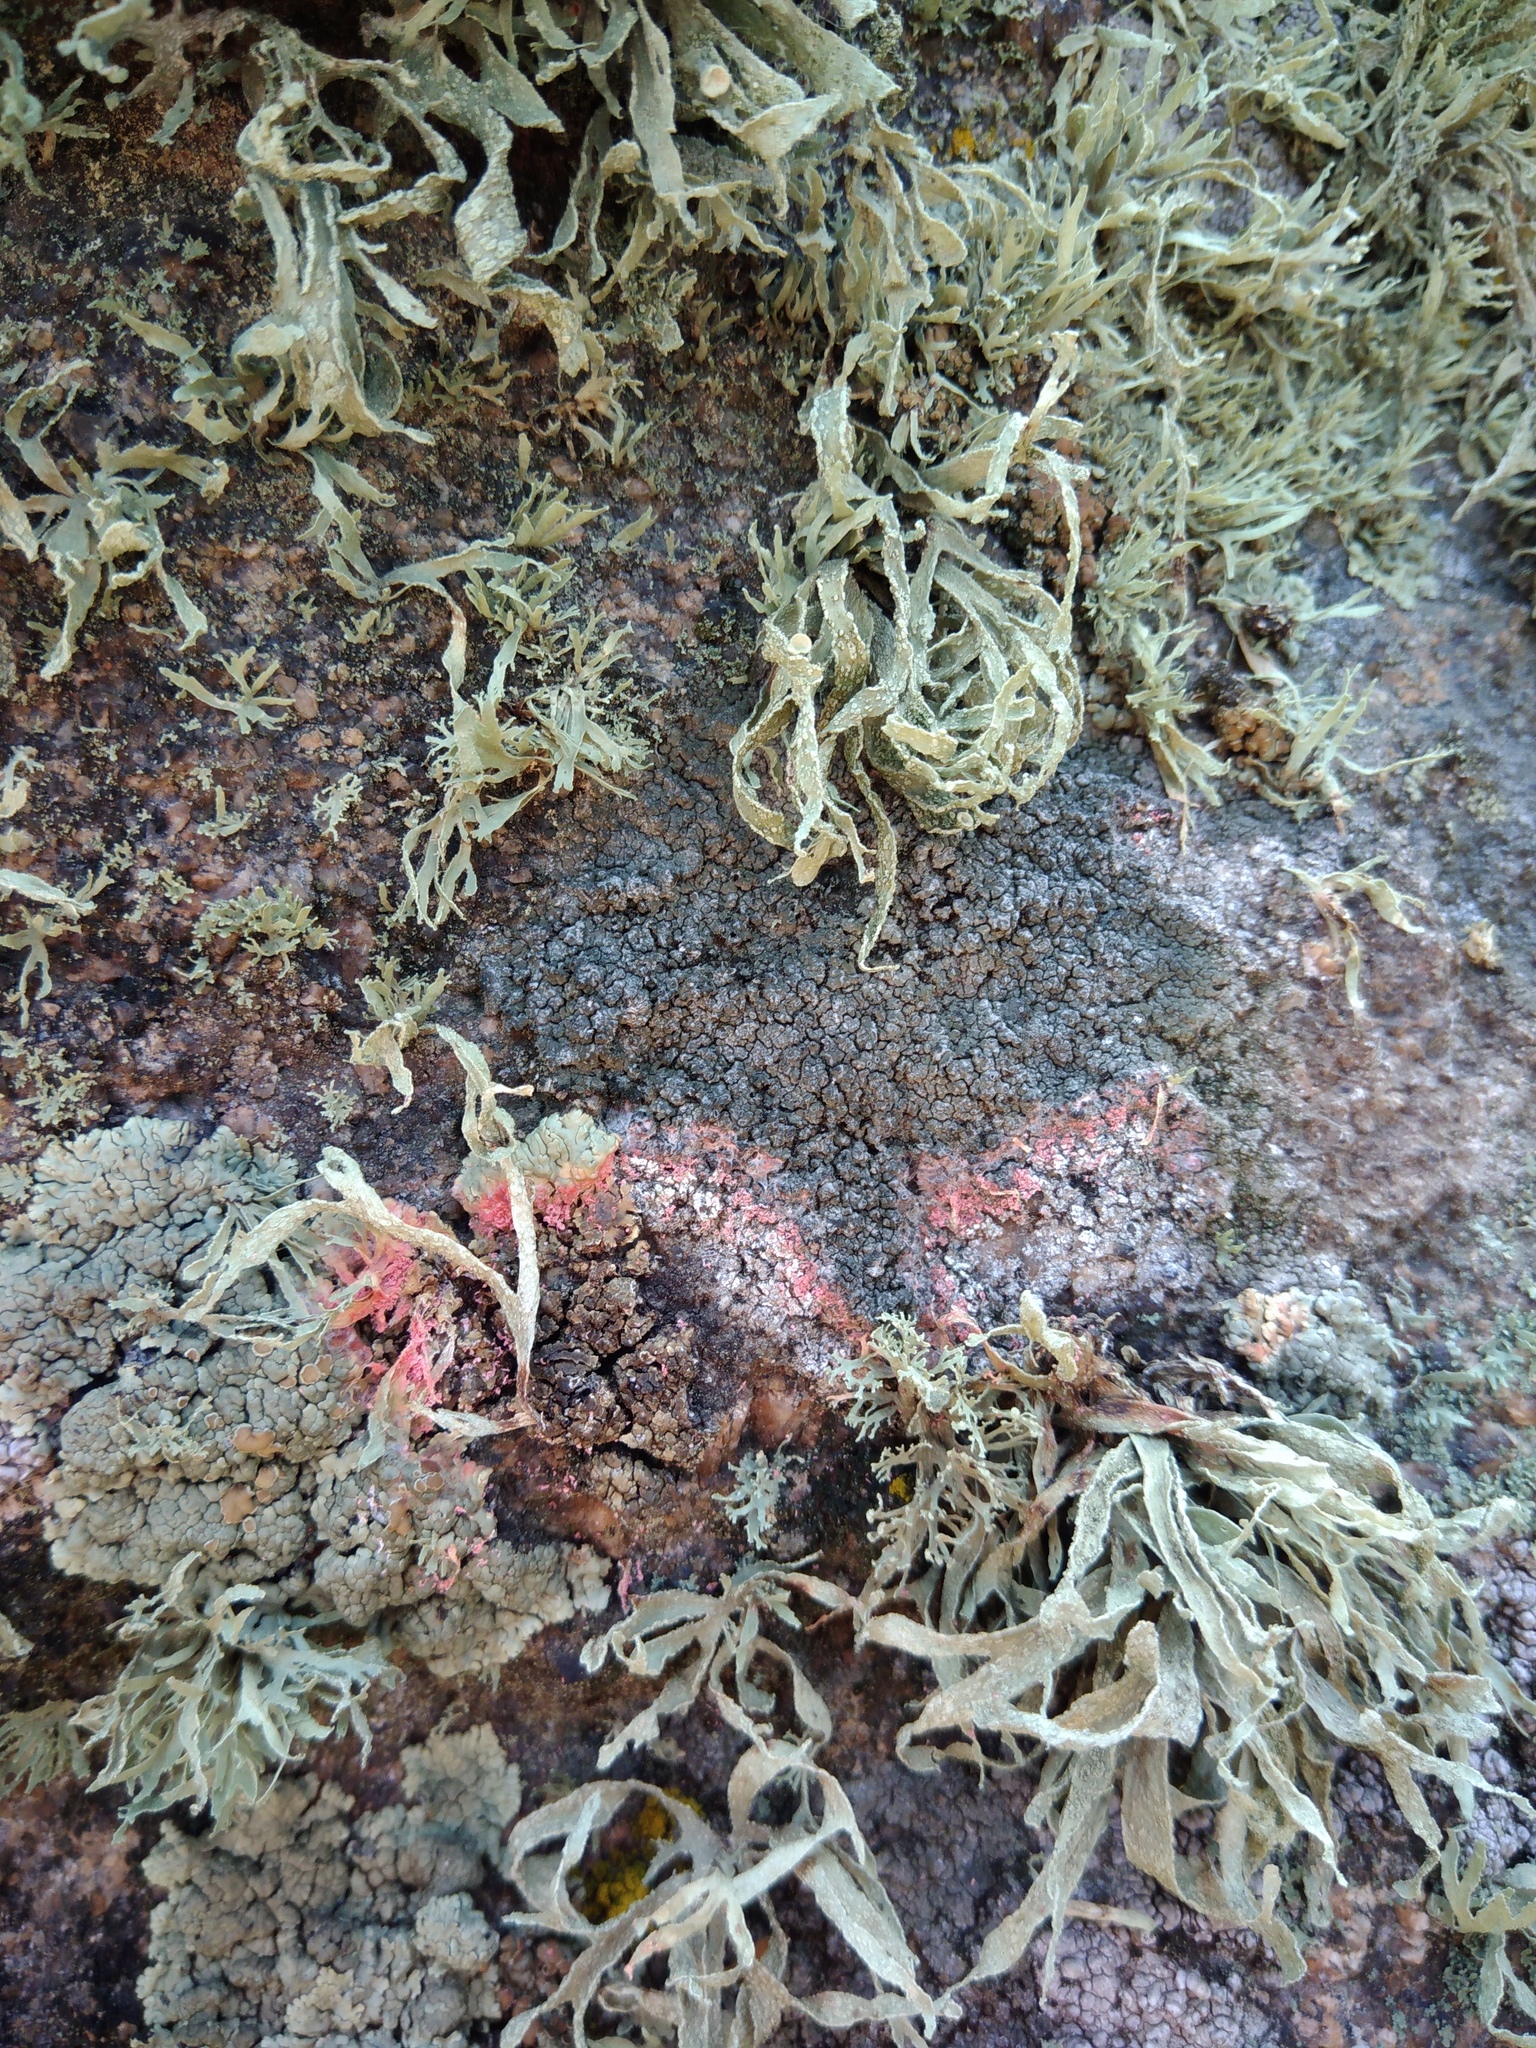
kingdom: Fungi
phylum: Basidiomycota
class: Agaricomycetes
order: Corticiales
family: Corticiaceae
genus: Marchandiomyces
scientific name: Marchandiomyces corallinus
